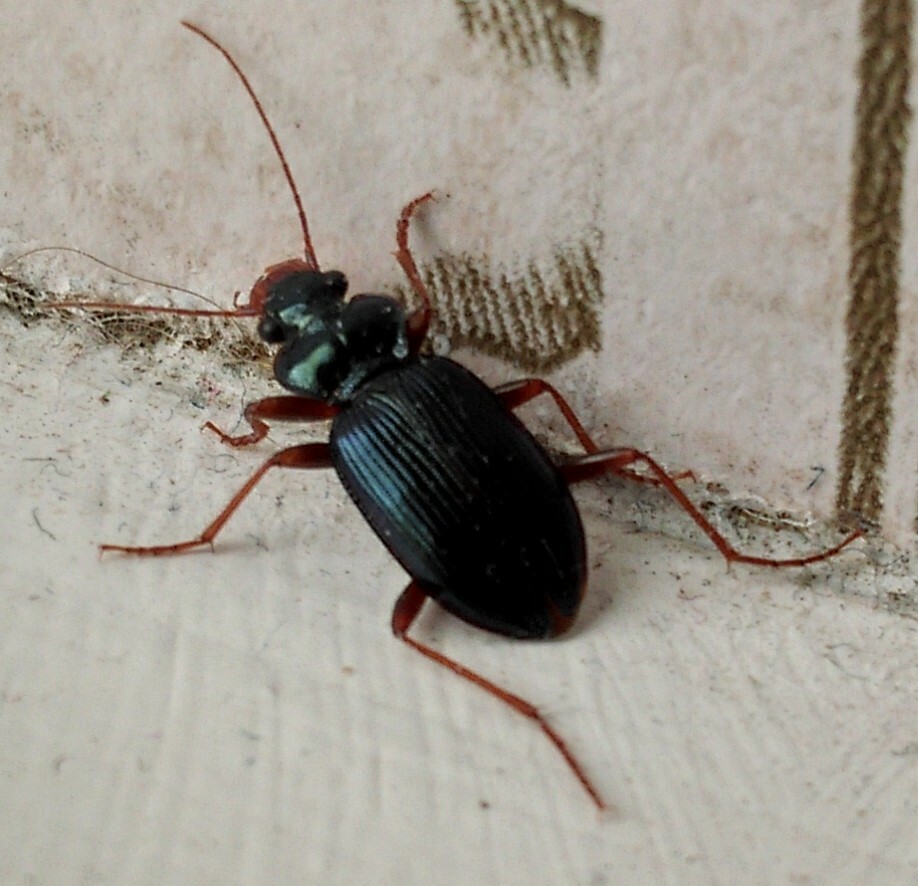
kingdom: Animalia
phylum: Arthropoda
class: Insecta
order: Coleoptera
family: Carabidae
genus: Leistus
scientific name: Leistus spinibarbis
